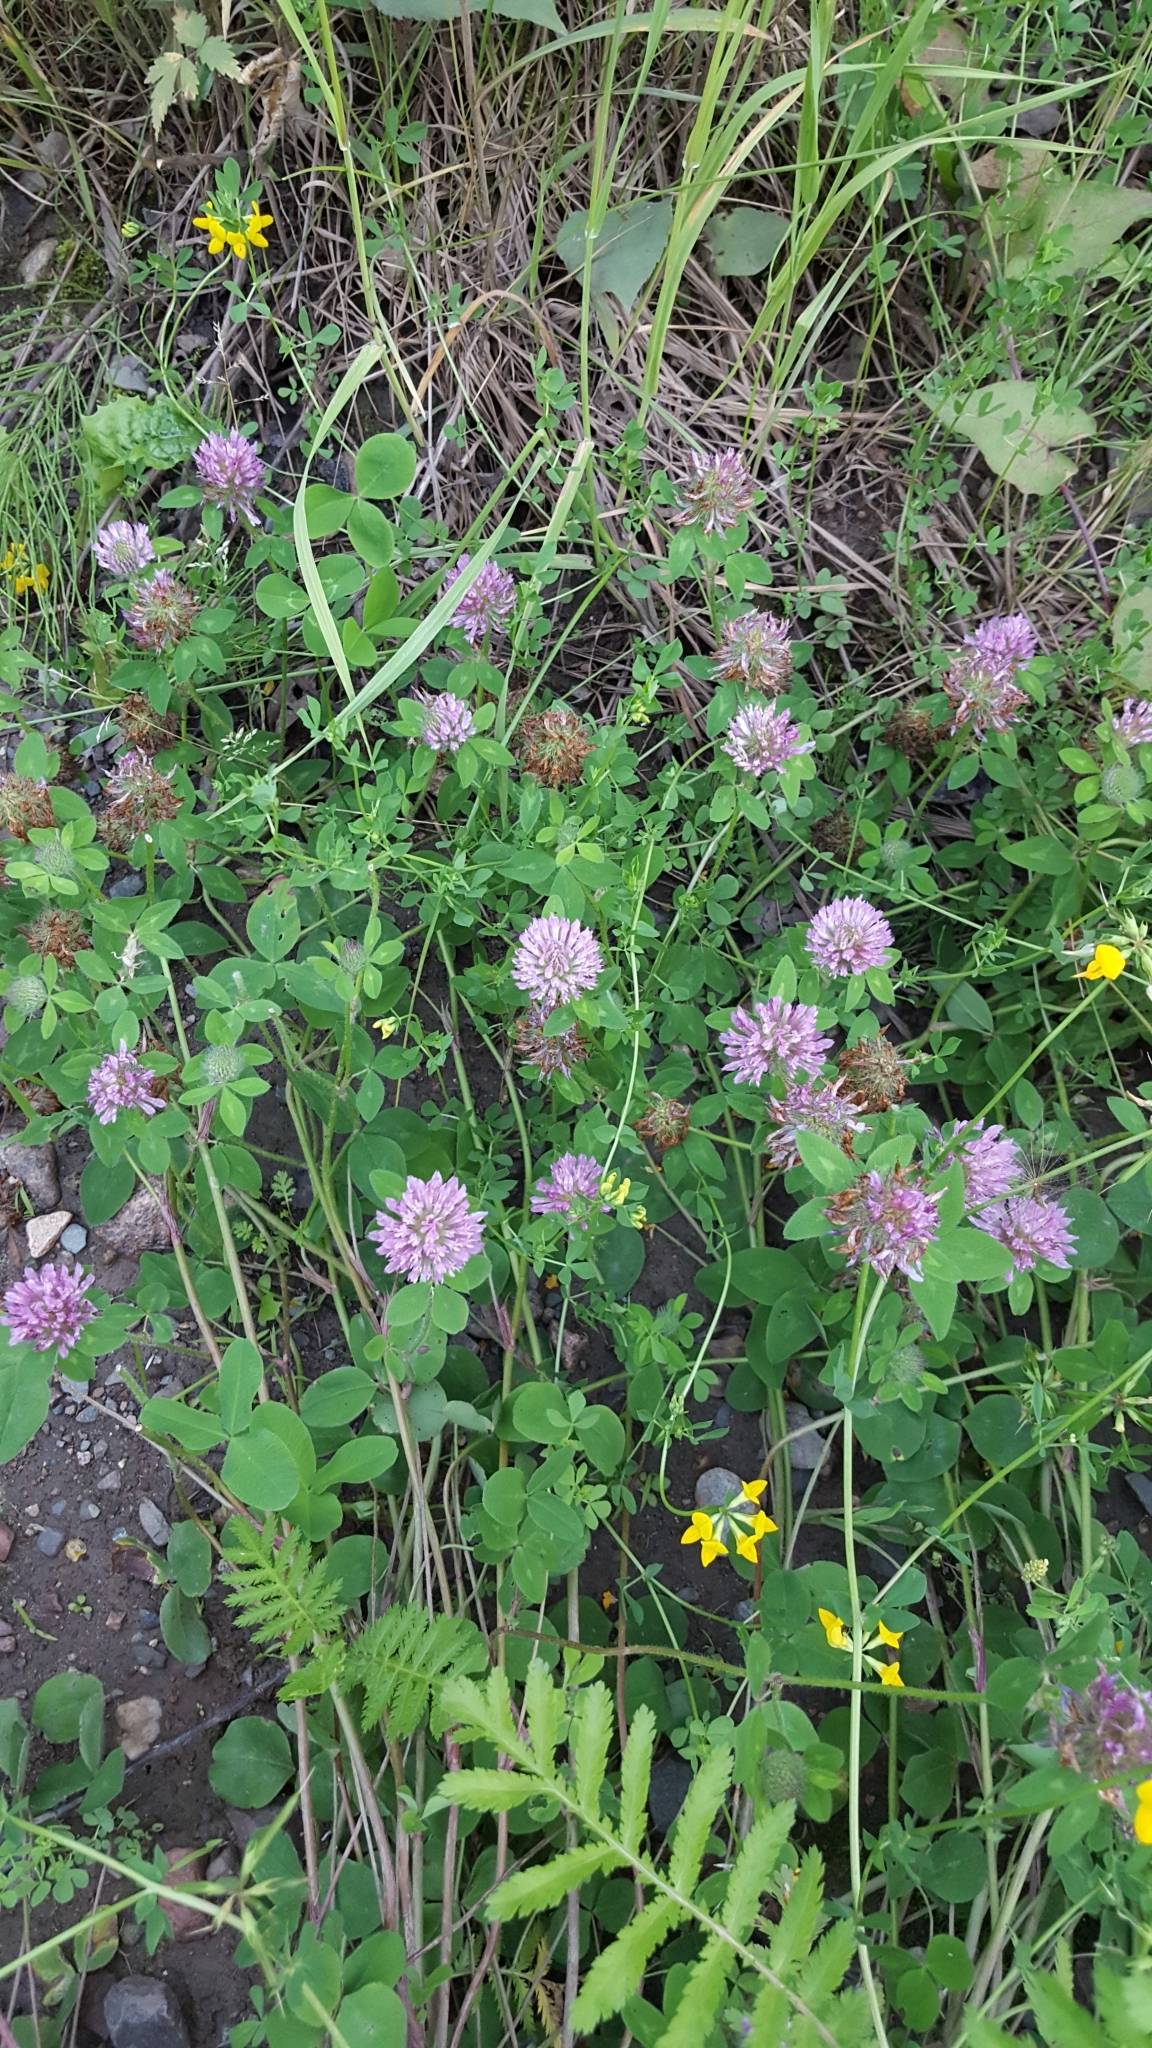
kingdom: Plantae
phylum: Tracheophyta
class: Magnoliopsida
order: Fabales
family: Fabaceae
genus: Trifolium
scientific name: Trifolium pratense
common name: Red clover
